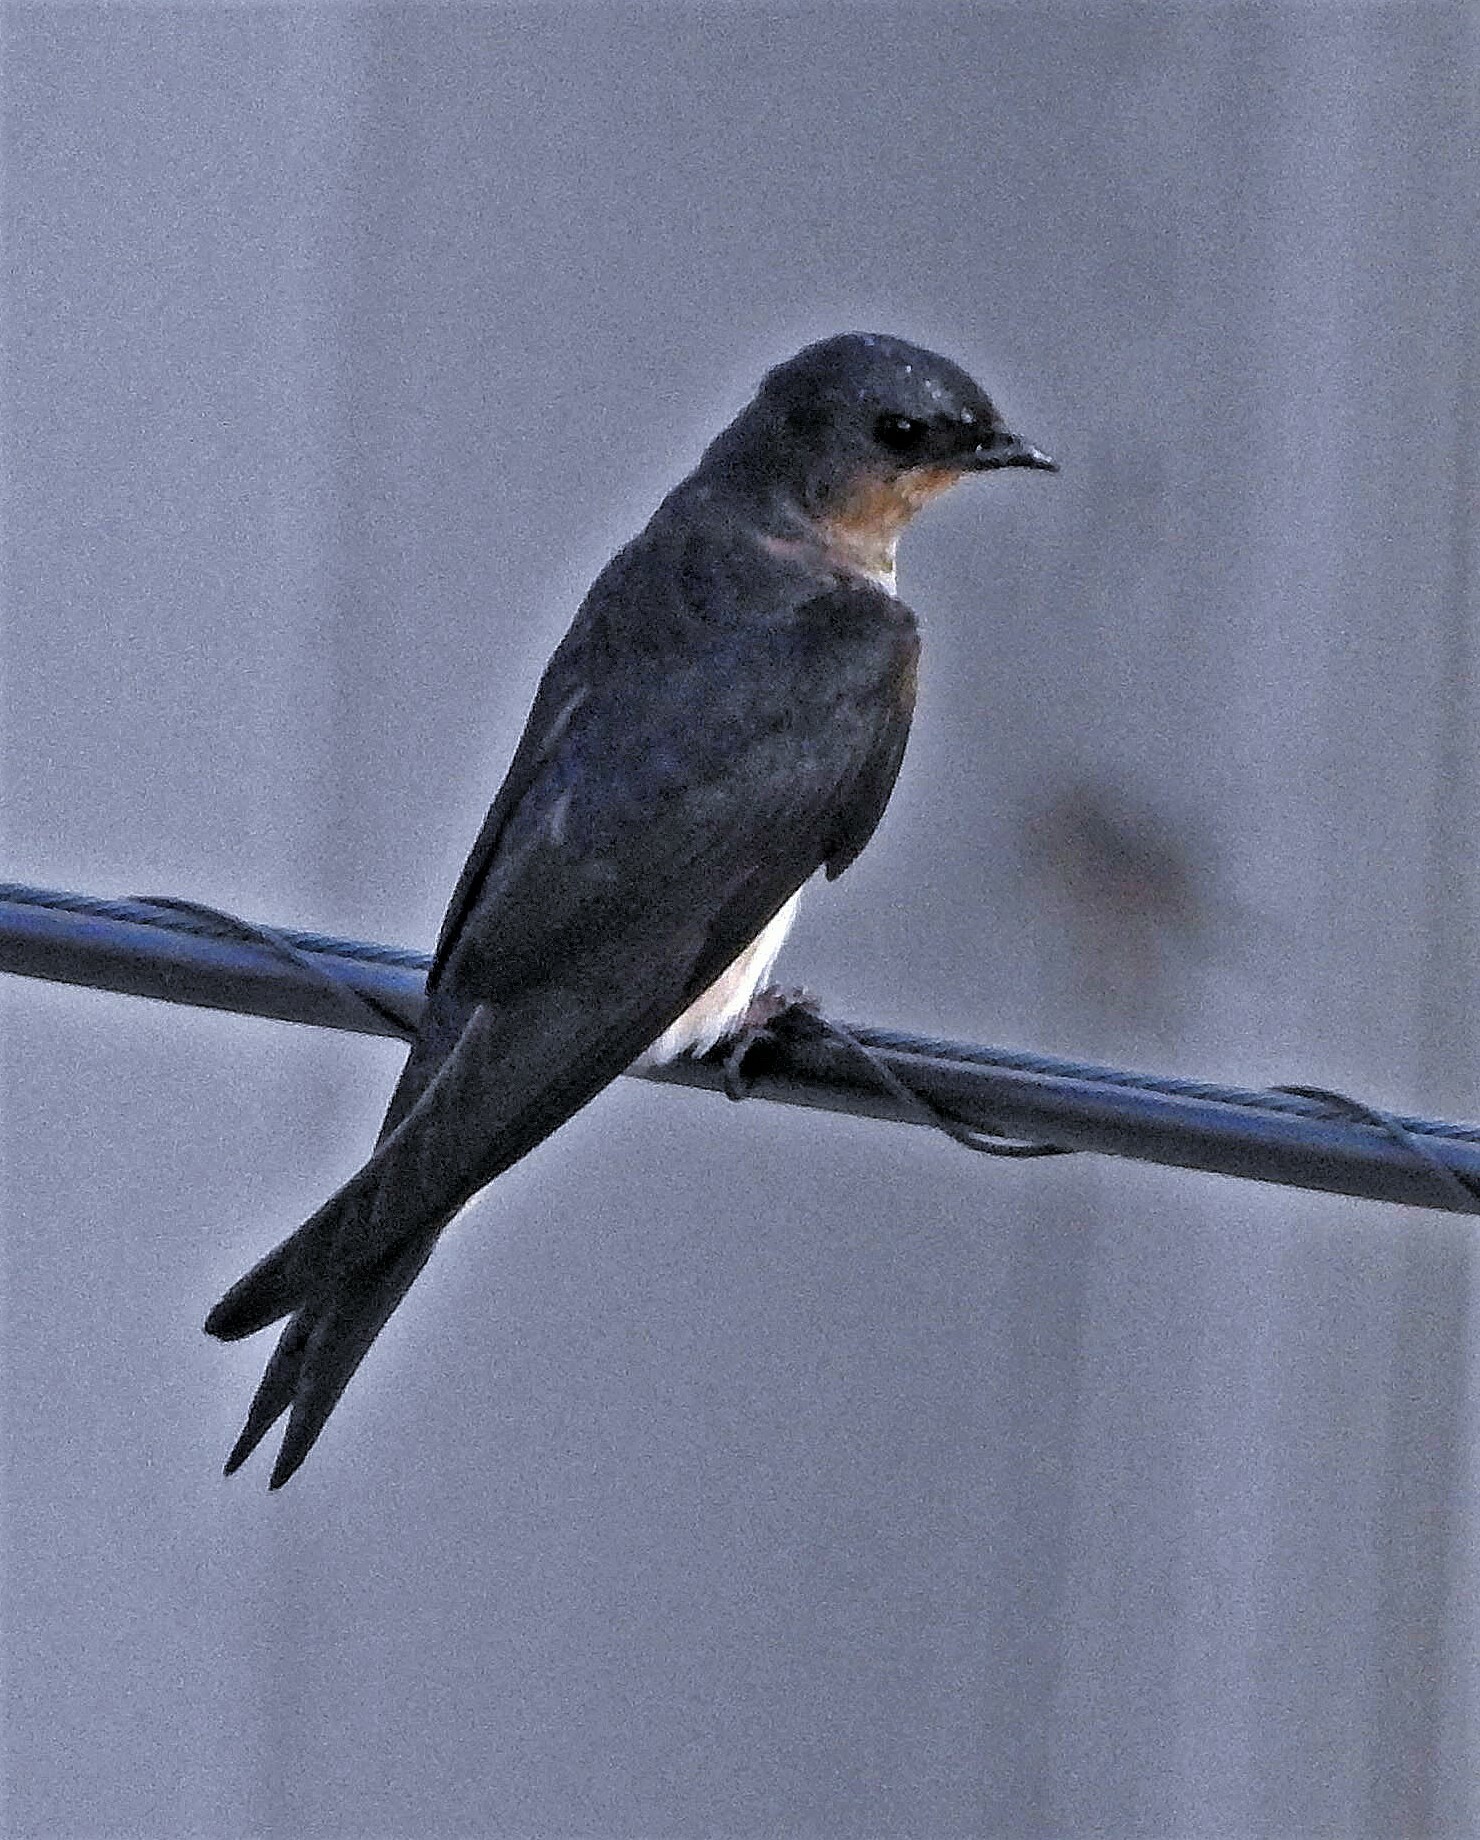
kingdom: Animalia
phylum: Chordata
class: Aves
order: Passeriformes
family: Hirundinidae
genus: Progne
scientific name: Progne chalybea
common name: Grey-breasted martin
